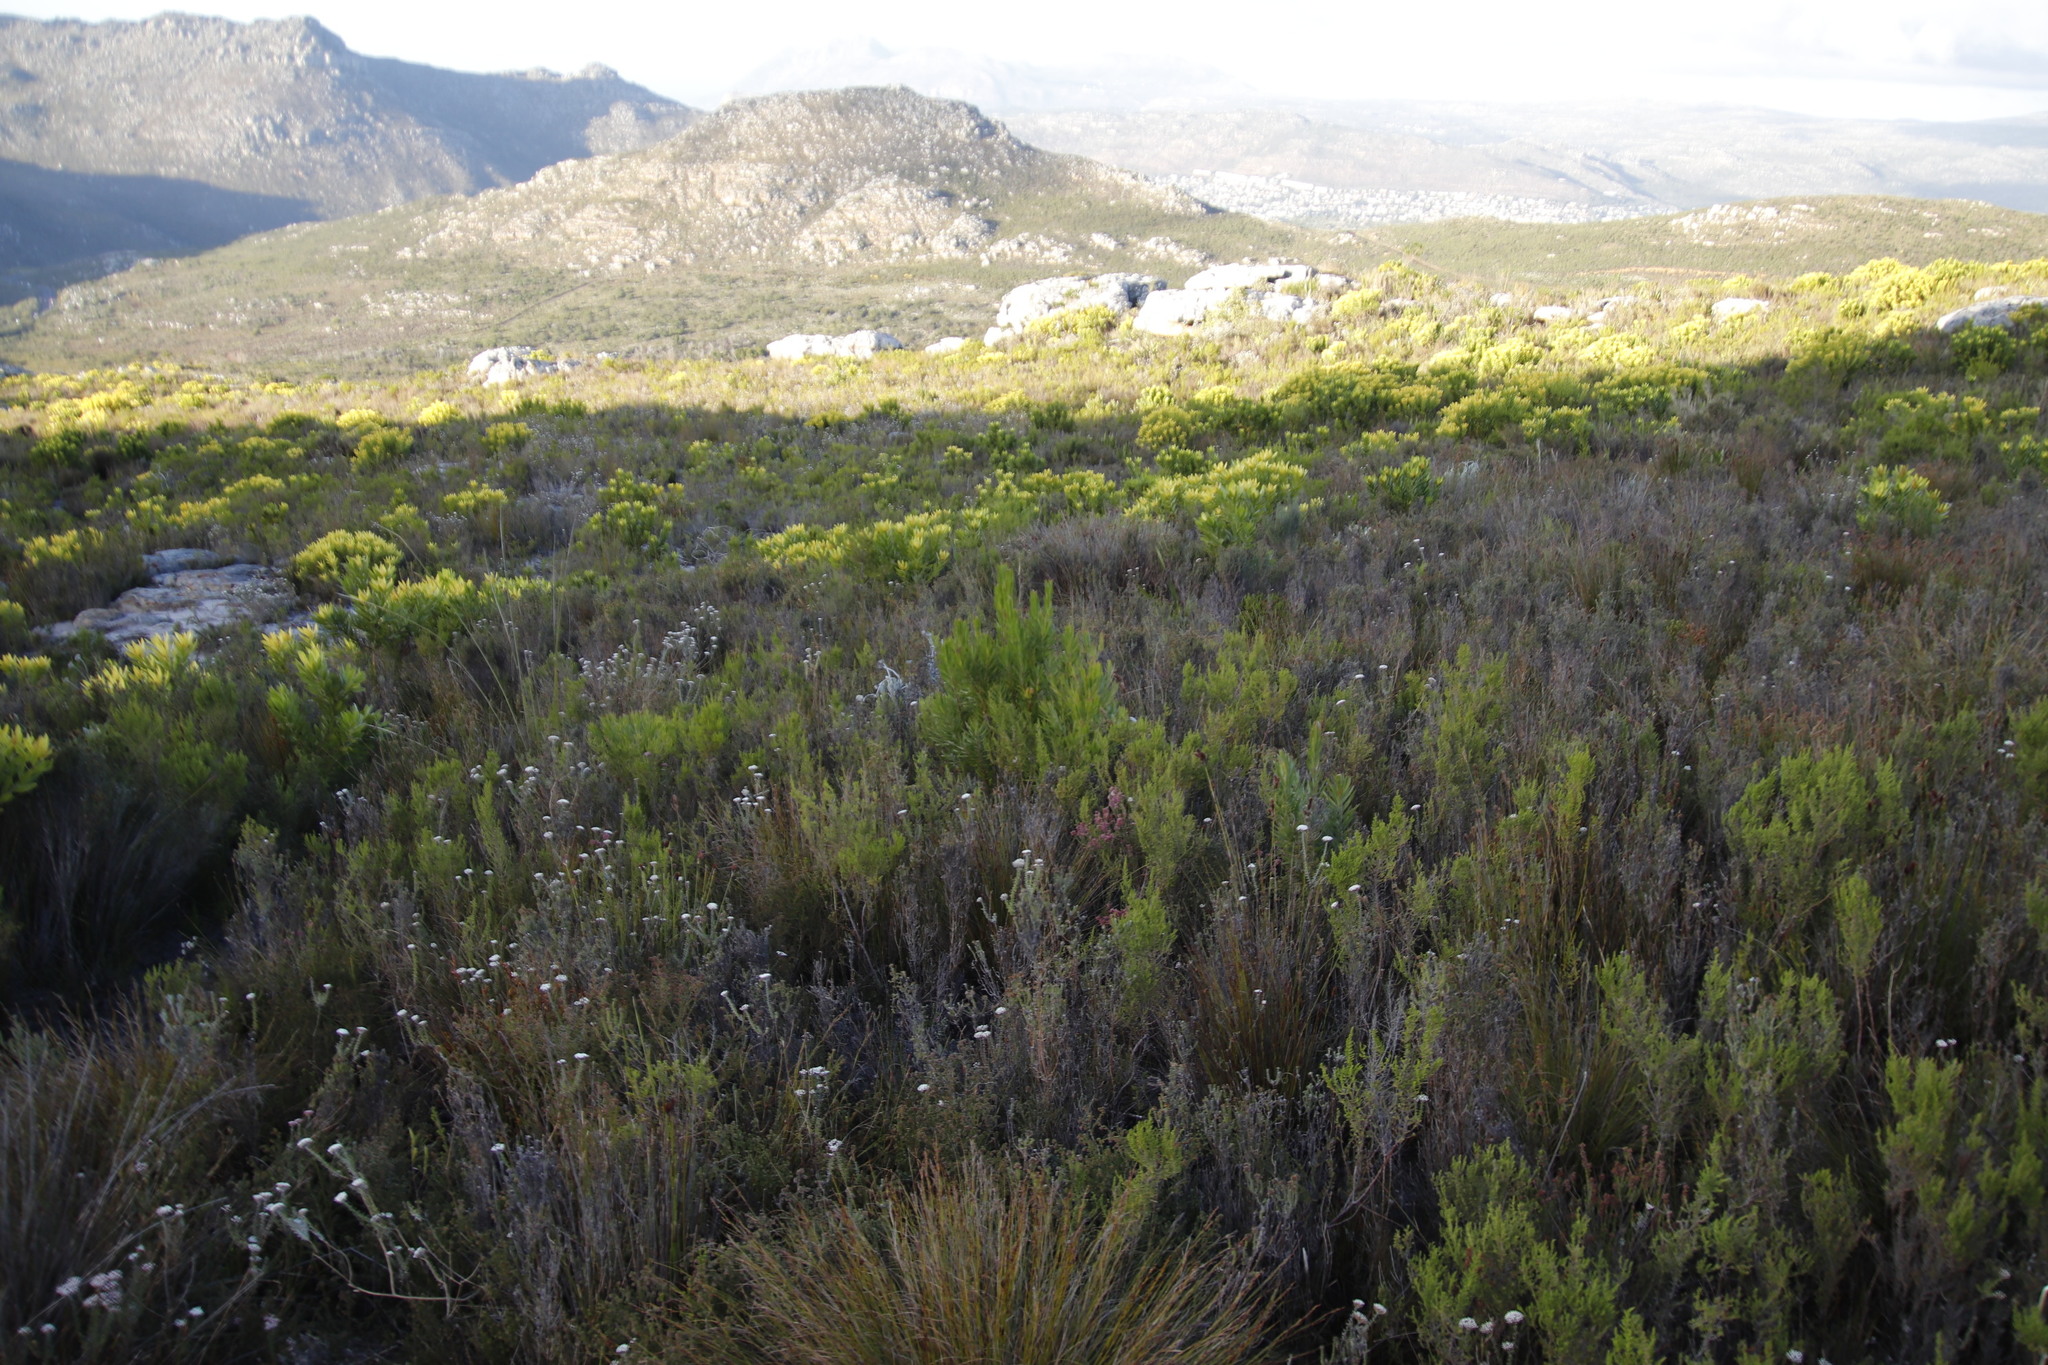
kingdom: Plantae
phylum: Tracheophyta
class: Magnoliopsida
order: Proteales
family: Proteaceae
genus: Leucadendron
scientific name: Leucadendron xanthoconus
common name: Sickle-leaf conebush
